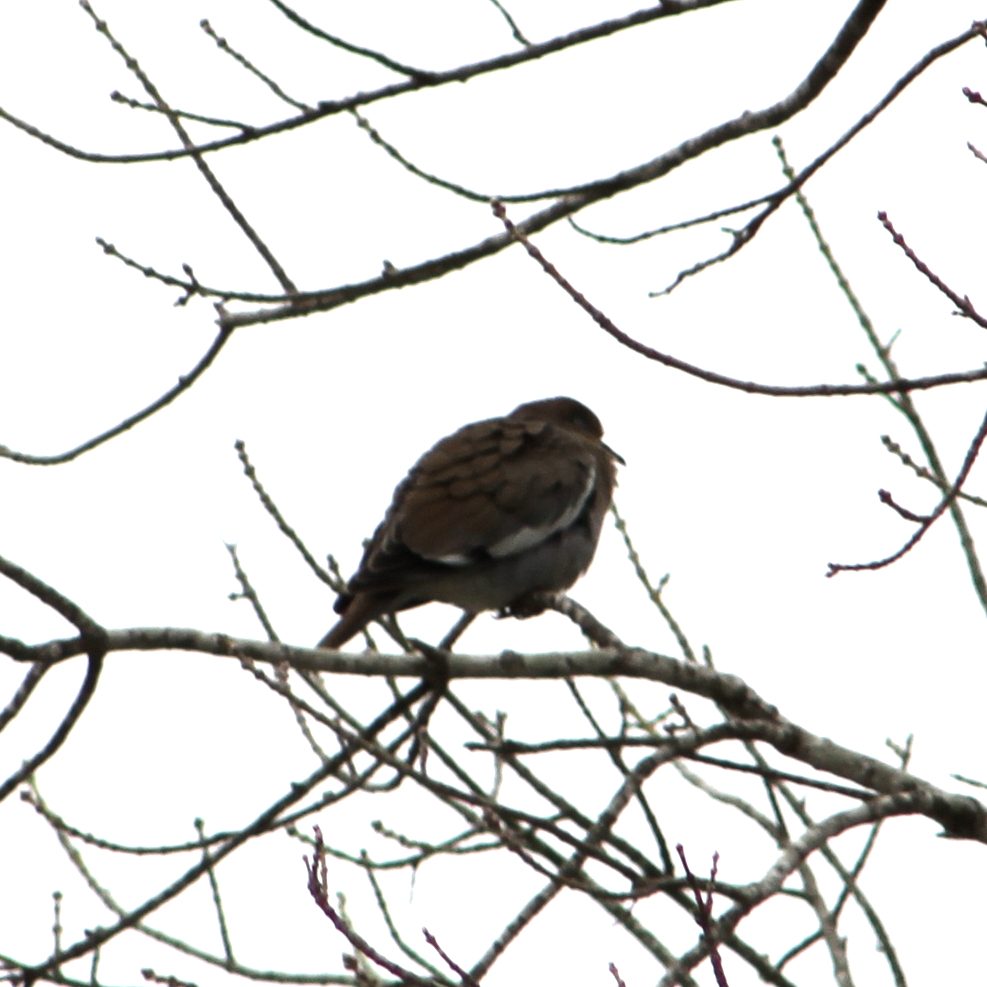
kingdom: Animalia
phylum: Chordata
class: Aves
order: Columbiformes
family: Columbidae
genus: Zenaida
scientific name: Zenaida asiatica
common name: White-winged dove
